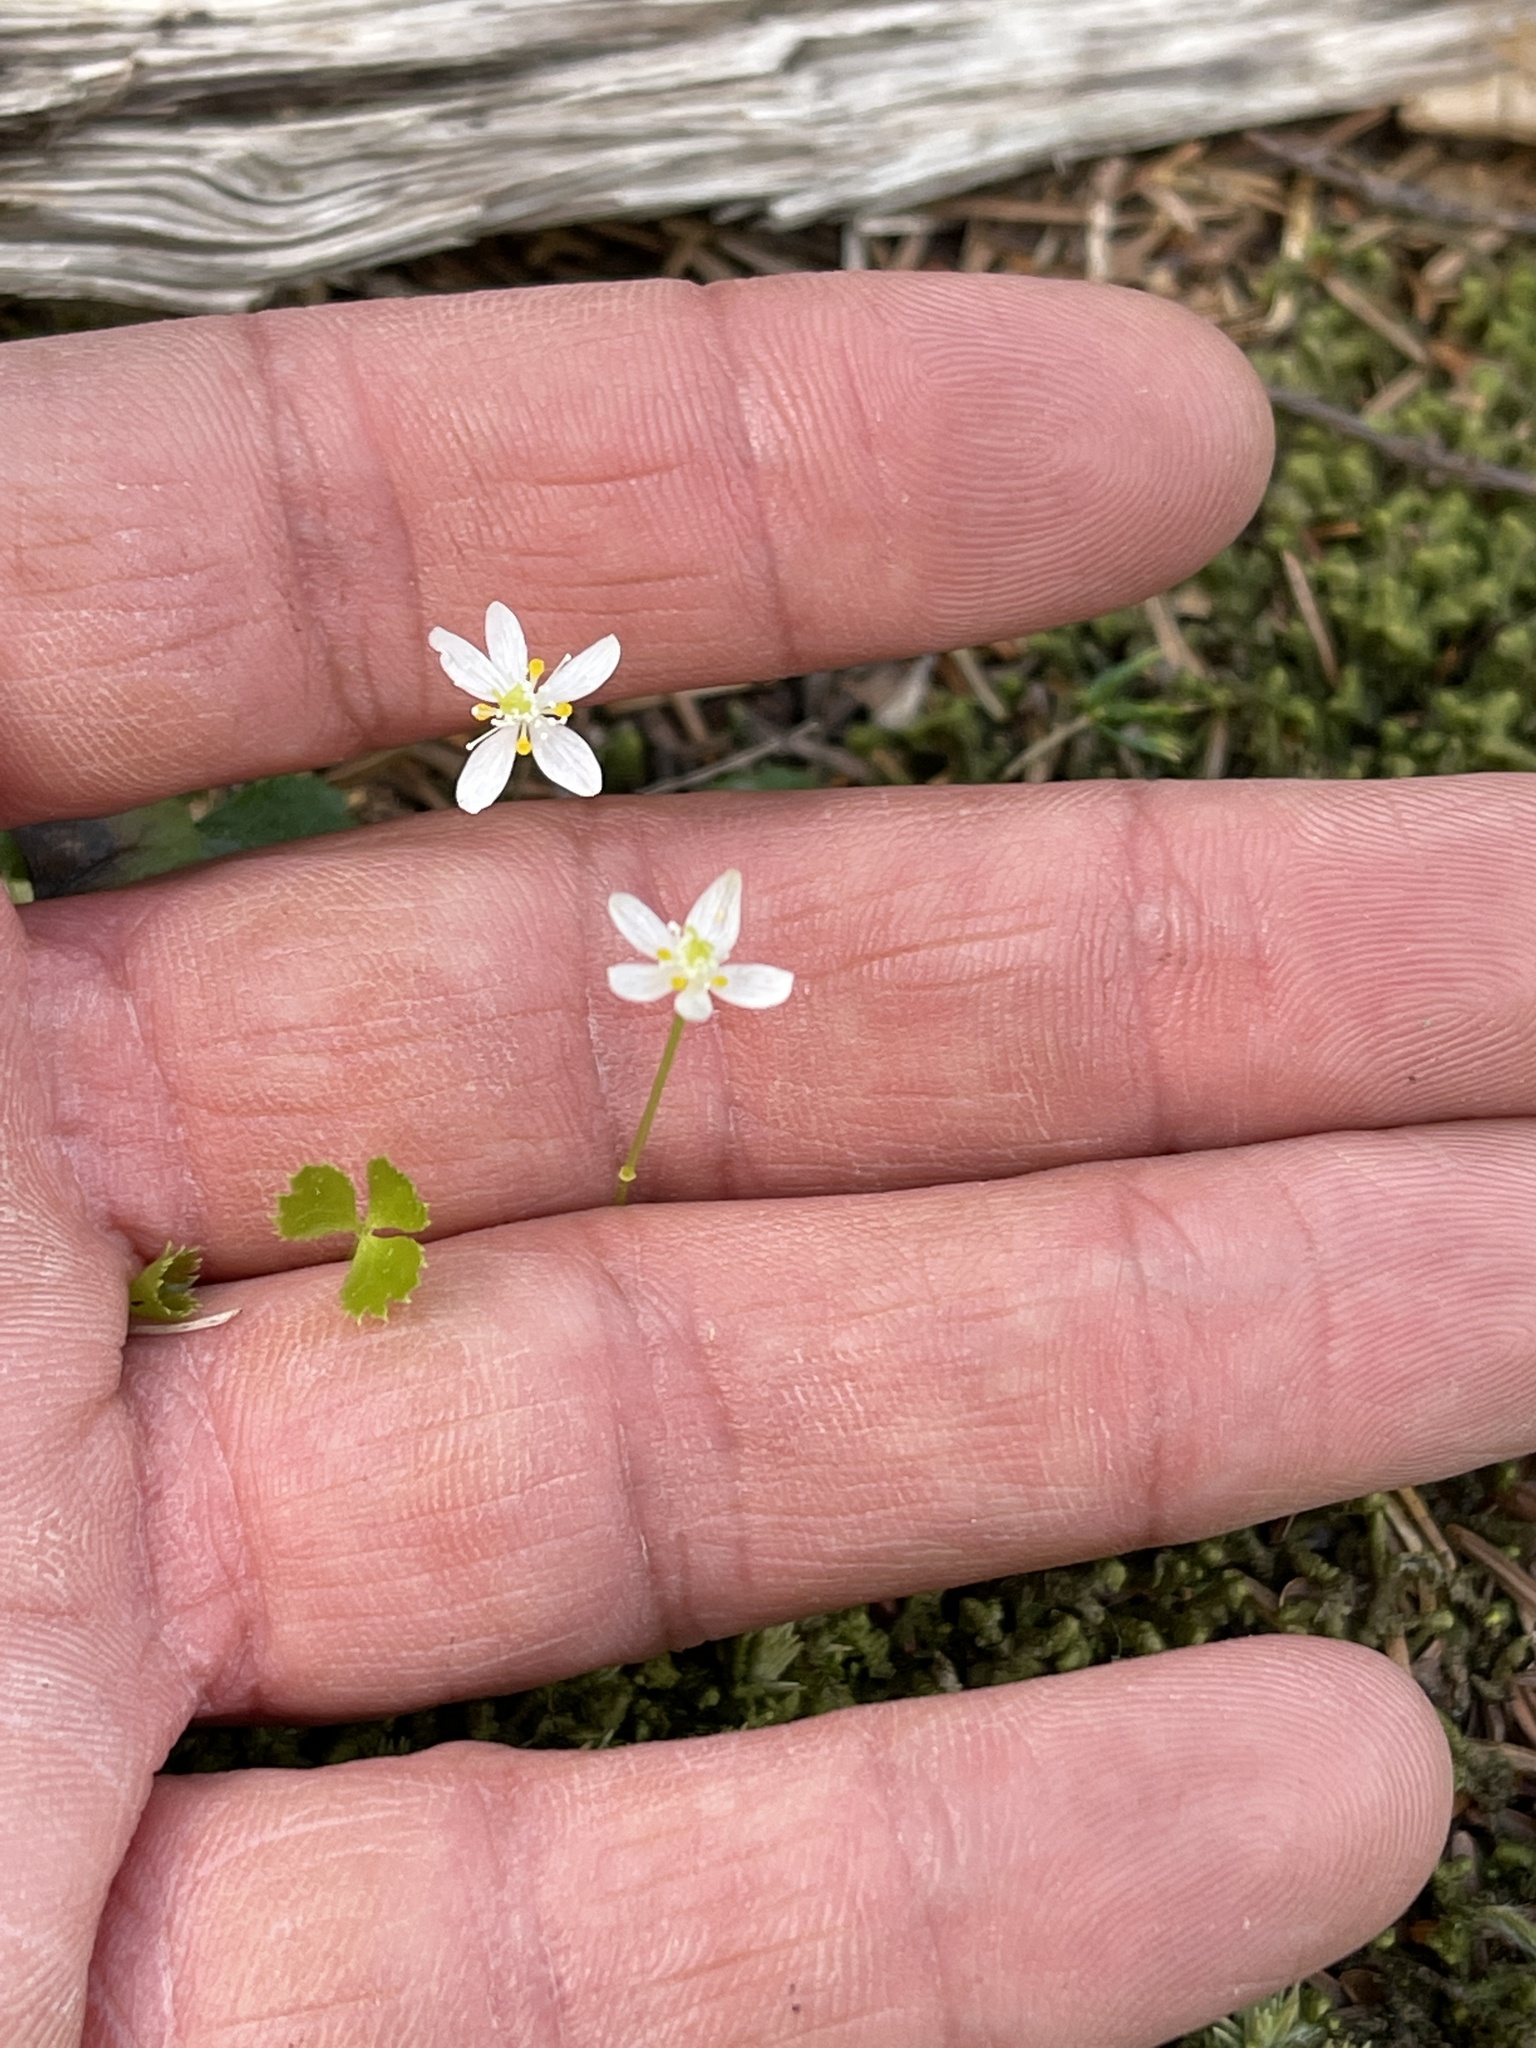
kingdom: Plantae
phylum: Tracheophyta
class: Magnoliopsida
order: Ranunculales
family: Ranunculaceae
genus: Coptis
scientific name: Coptis trifolia
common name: Canker-root
